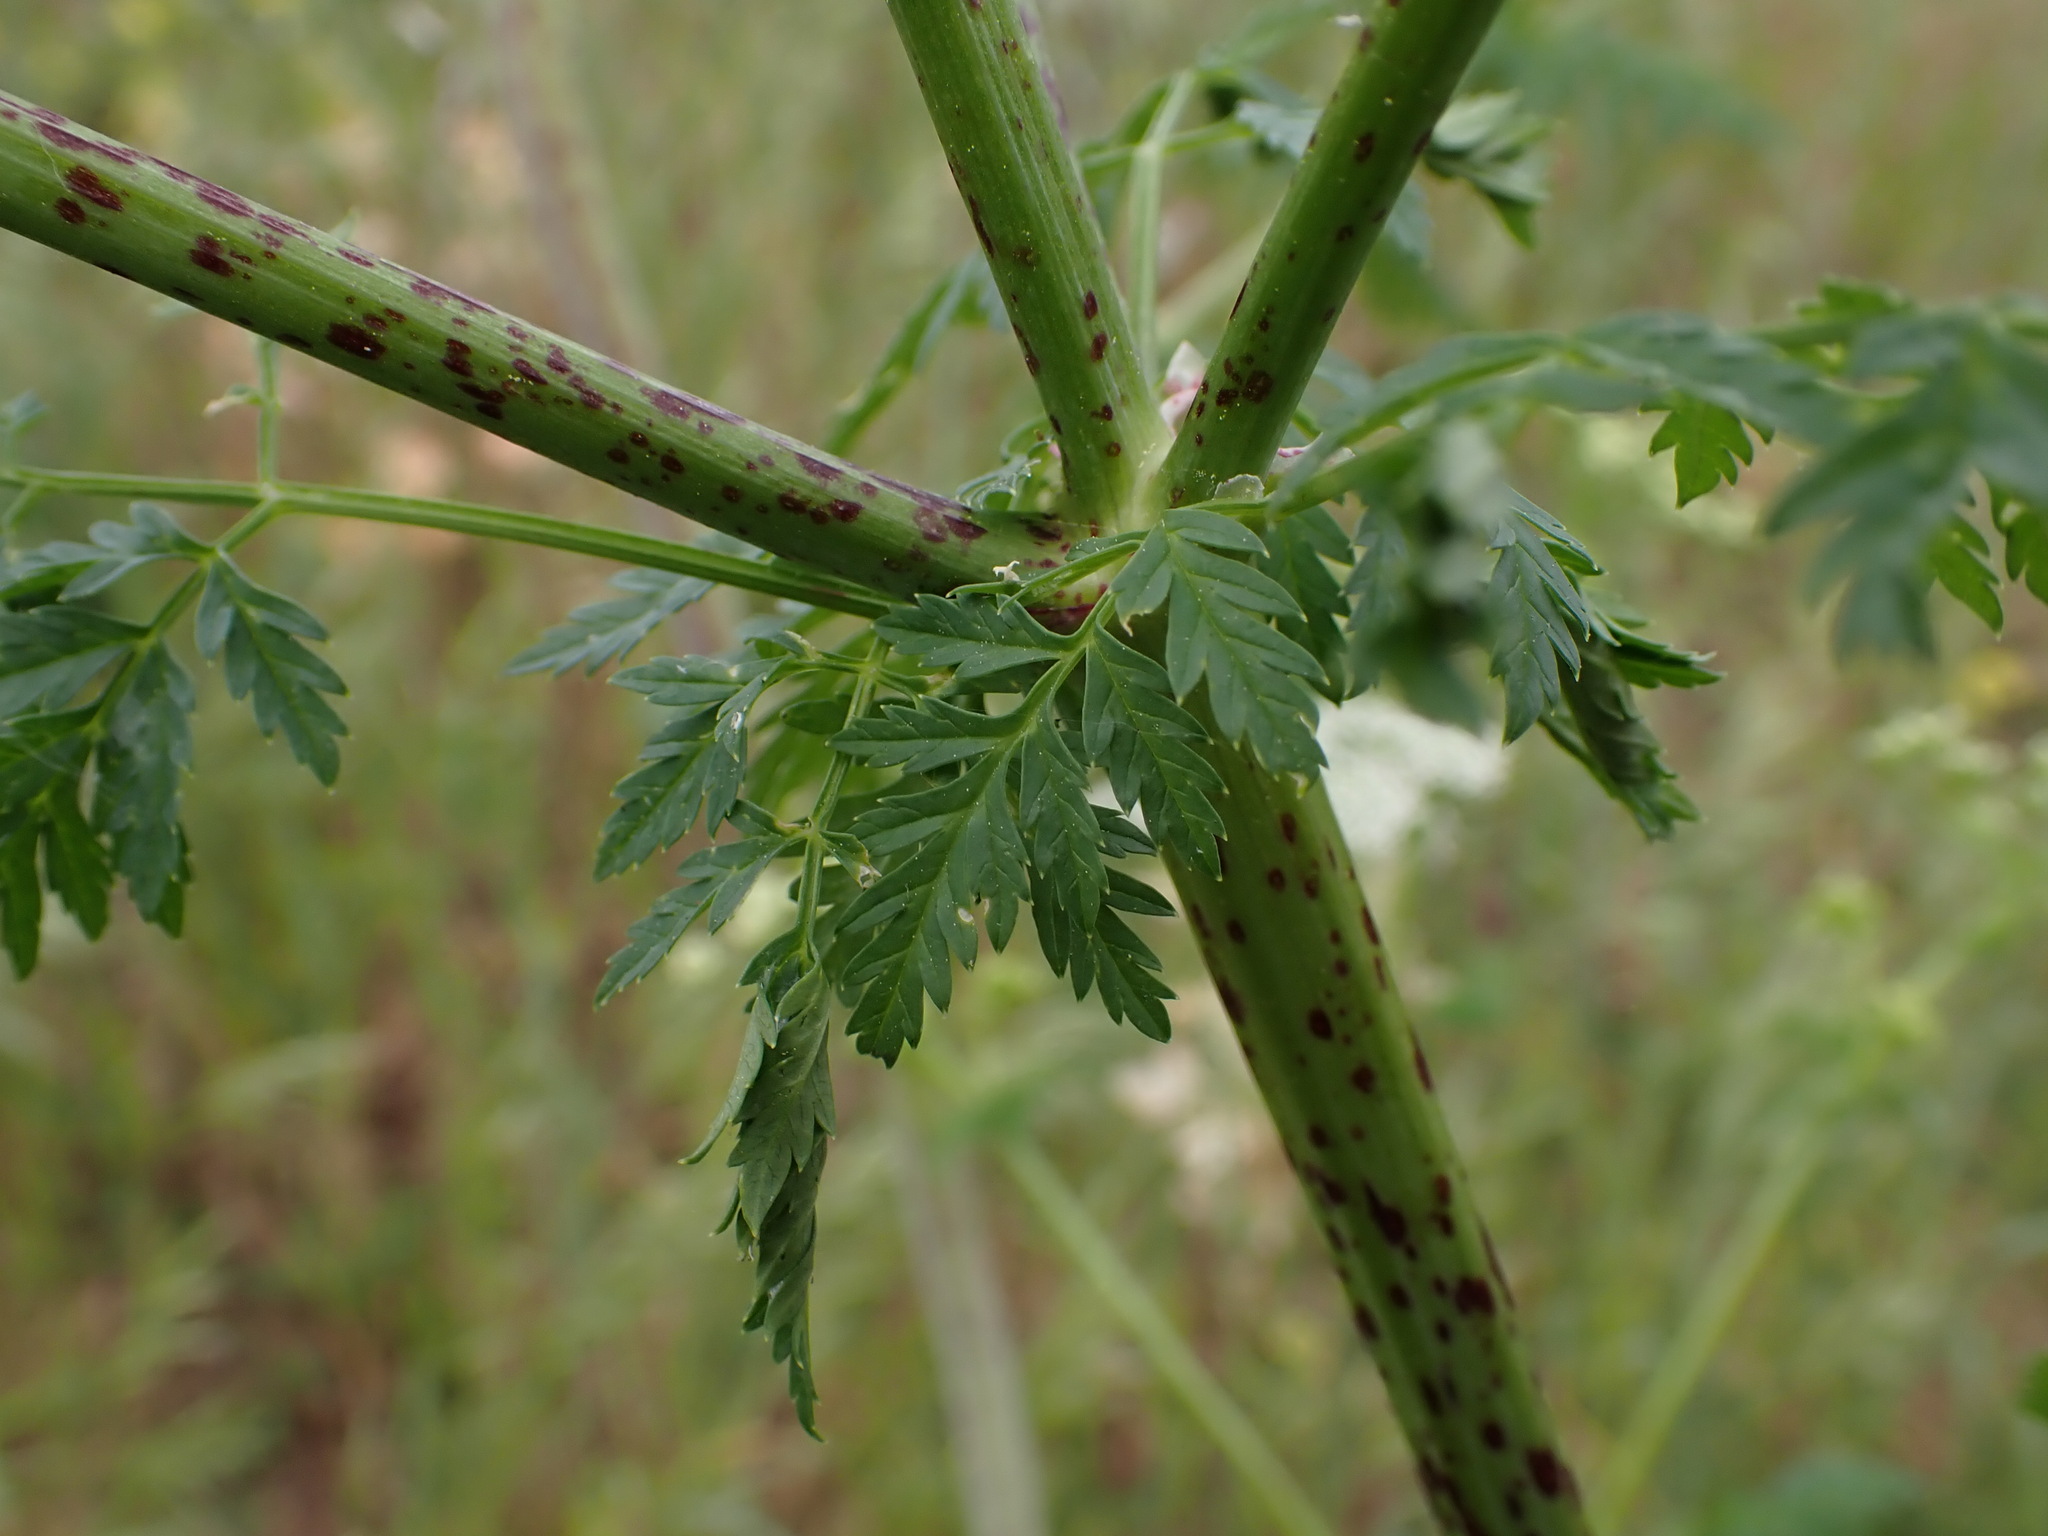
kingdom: Plantae
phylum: Tracheophyta
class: Magnoliopsida
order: Apiales
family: Apiaceae
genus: Conium
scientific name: Conium maculatum
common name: Hemlock
